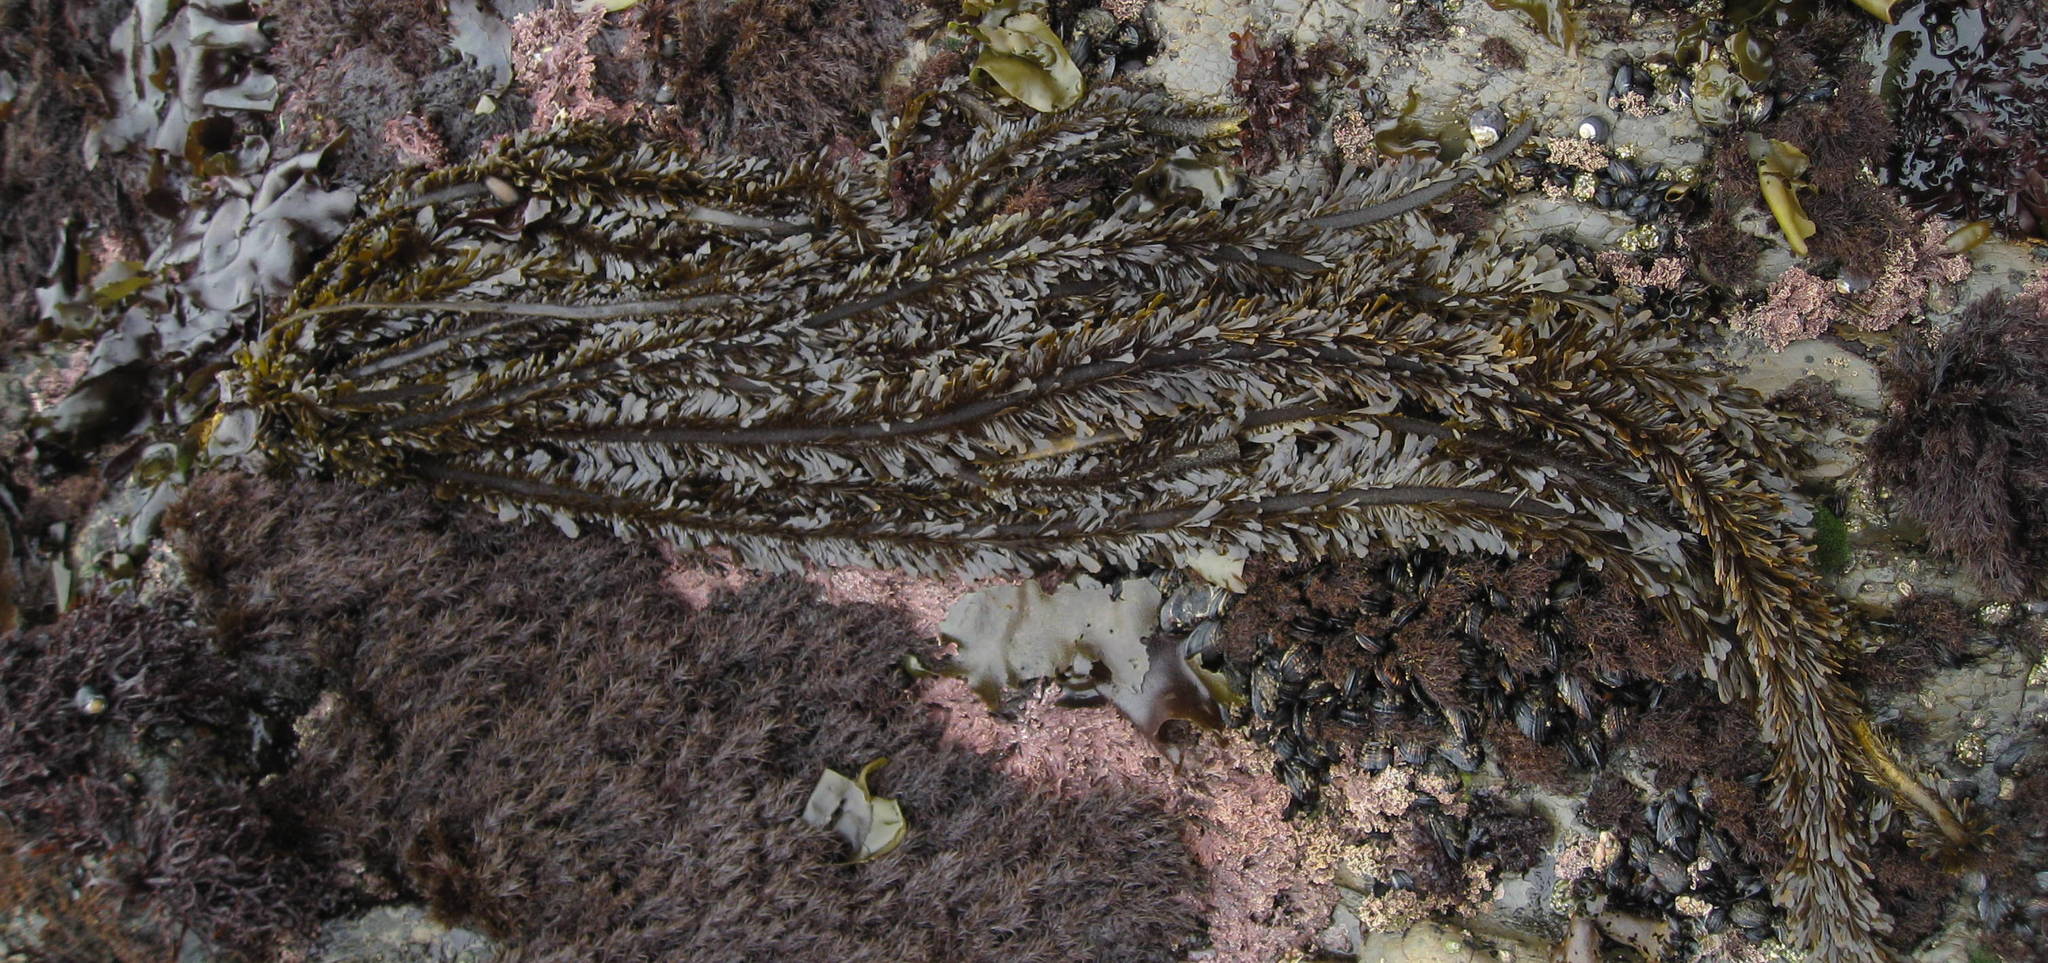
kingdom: Chromista
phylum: Ochrophyta
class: Phaeophyceae
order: Laminariales
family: Lessoniaceae
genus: Egregia
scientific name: Egregia menziesii
